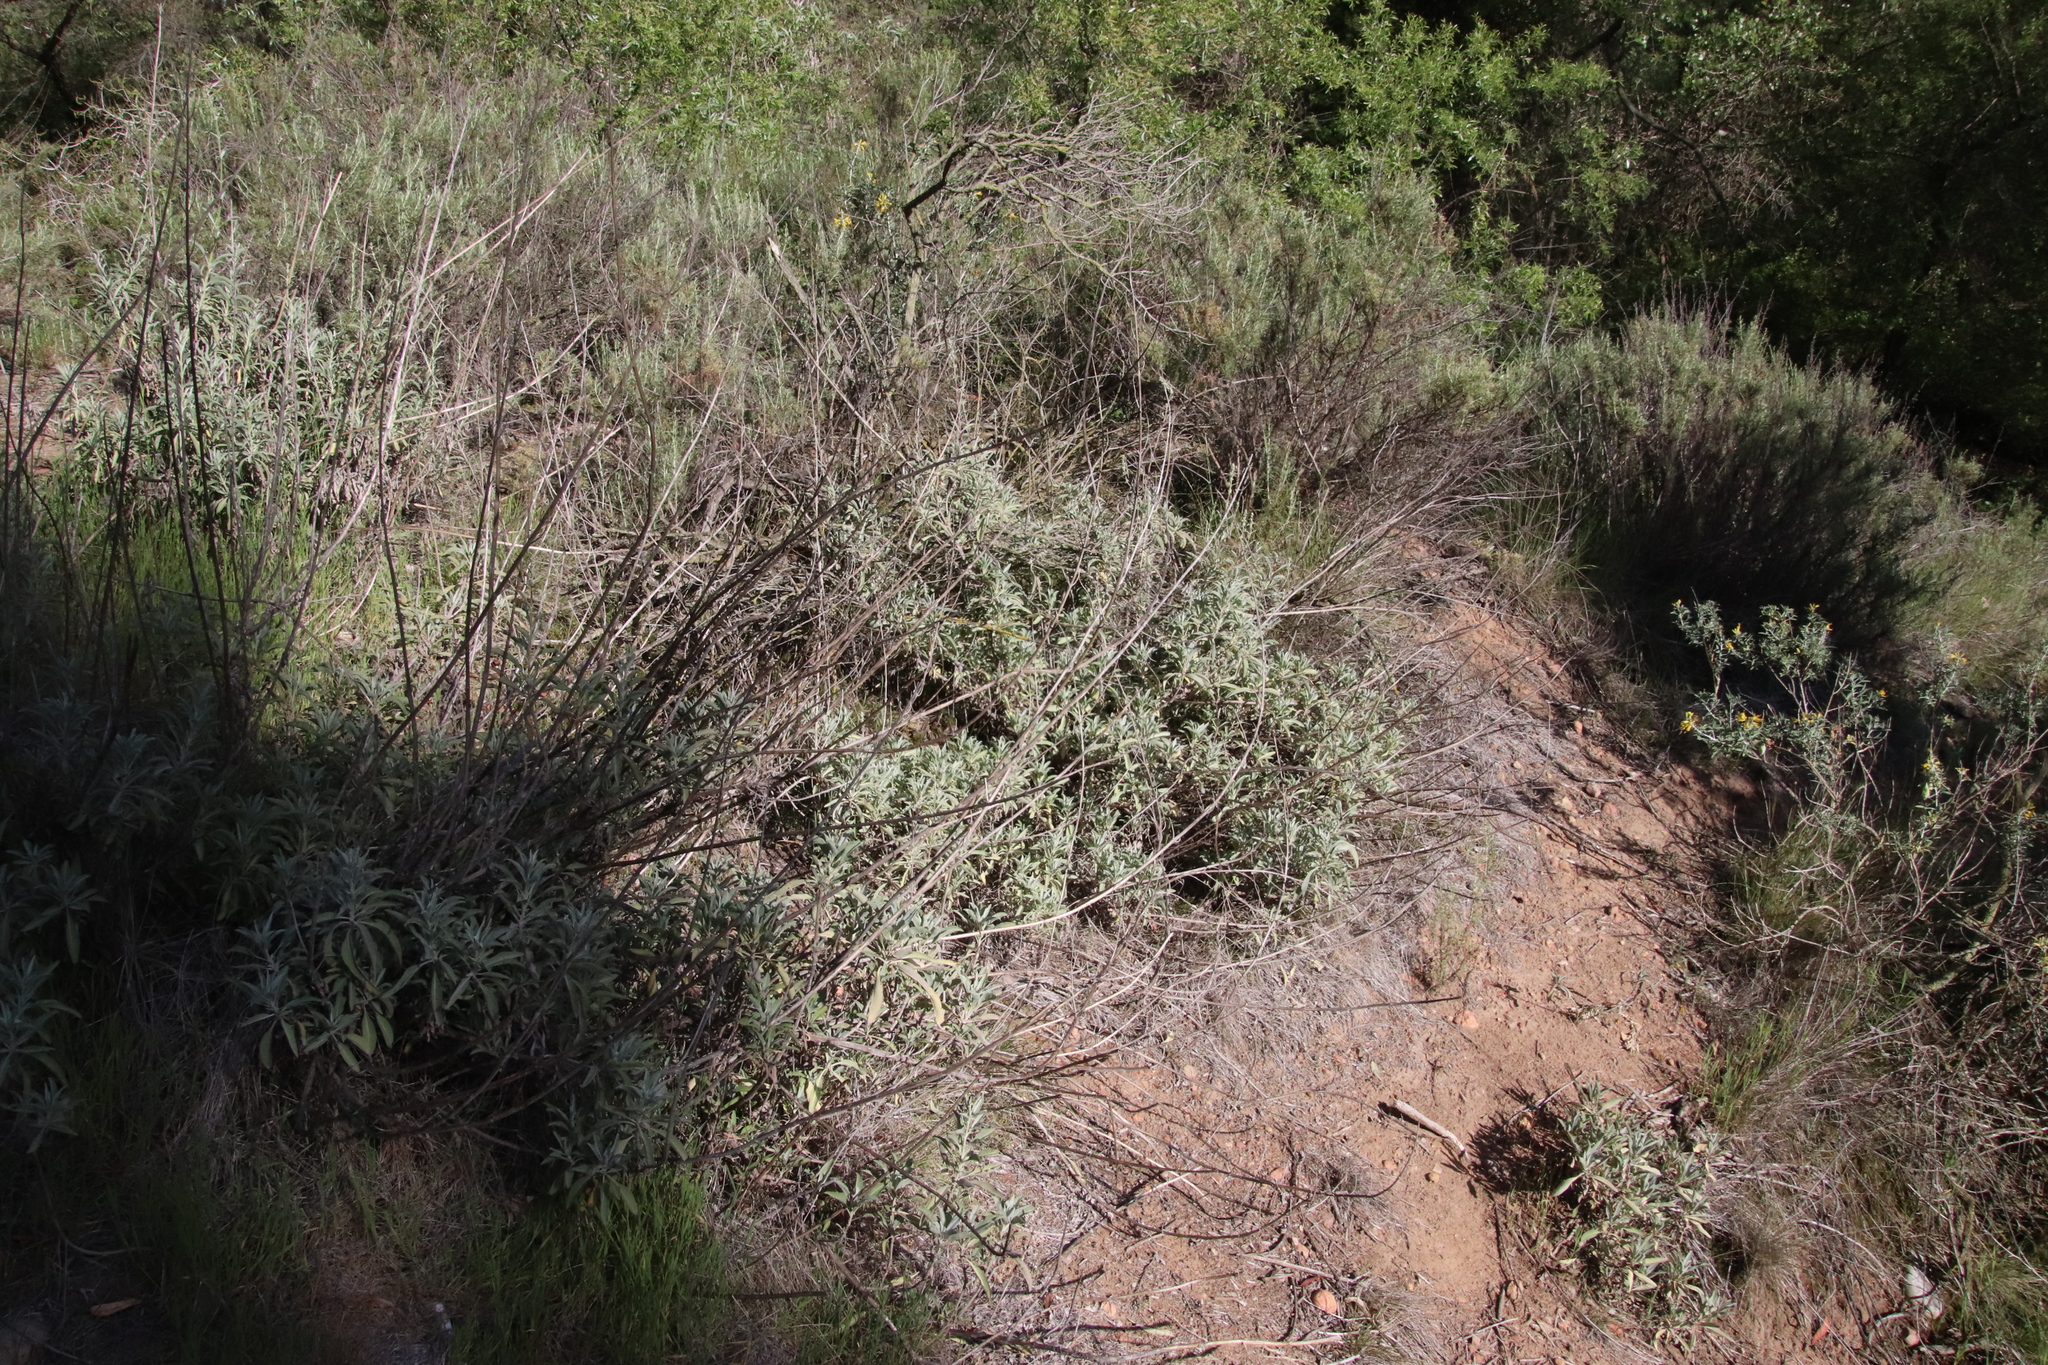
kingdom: Plantae
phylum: Tracheophyta
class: Magnoliopsida
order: Lamiales
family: Lamiaceae
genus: Salvia
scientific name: Salvia apiana
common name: White sage
